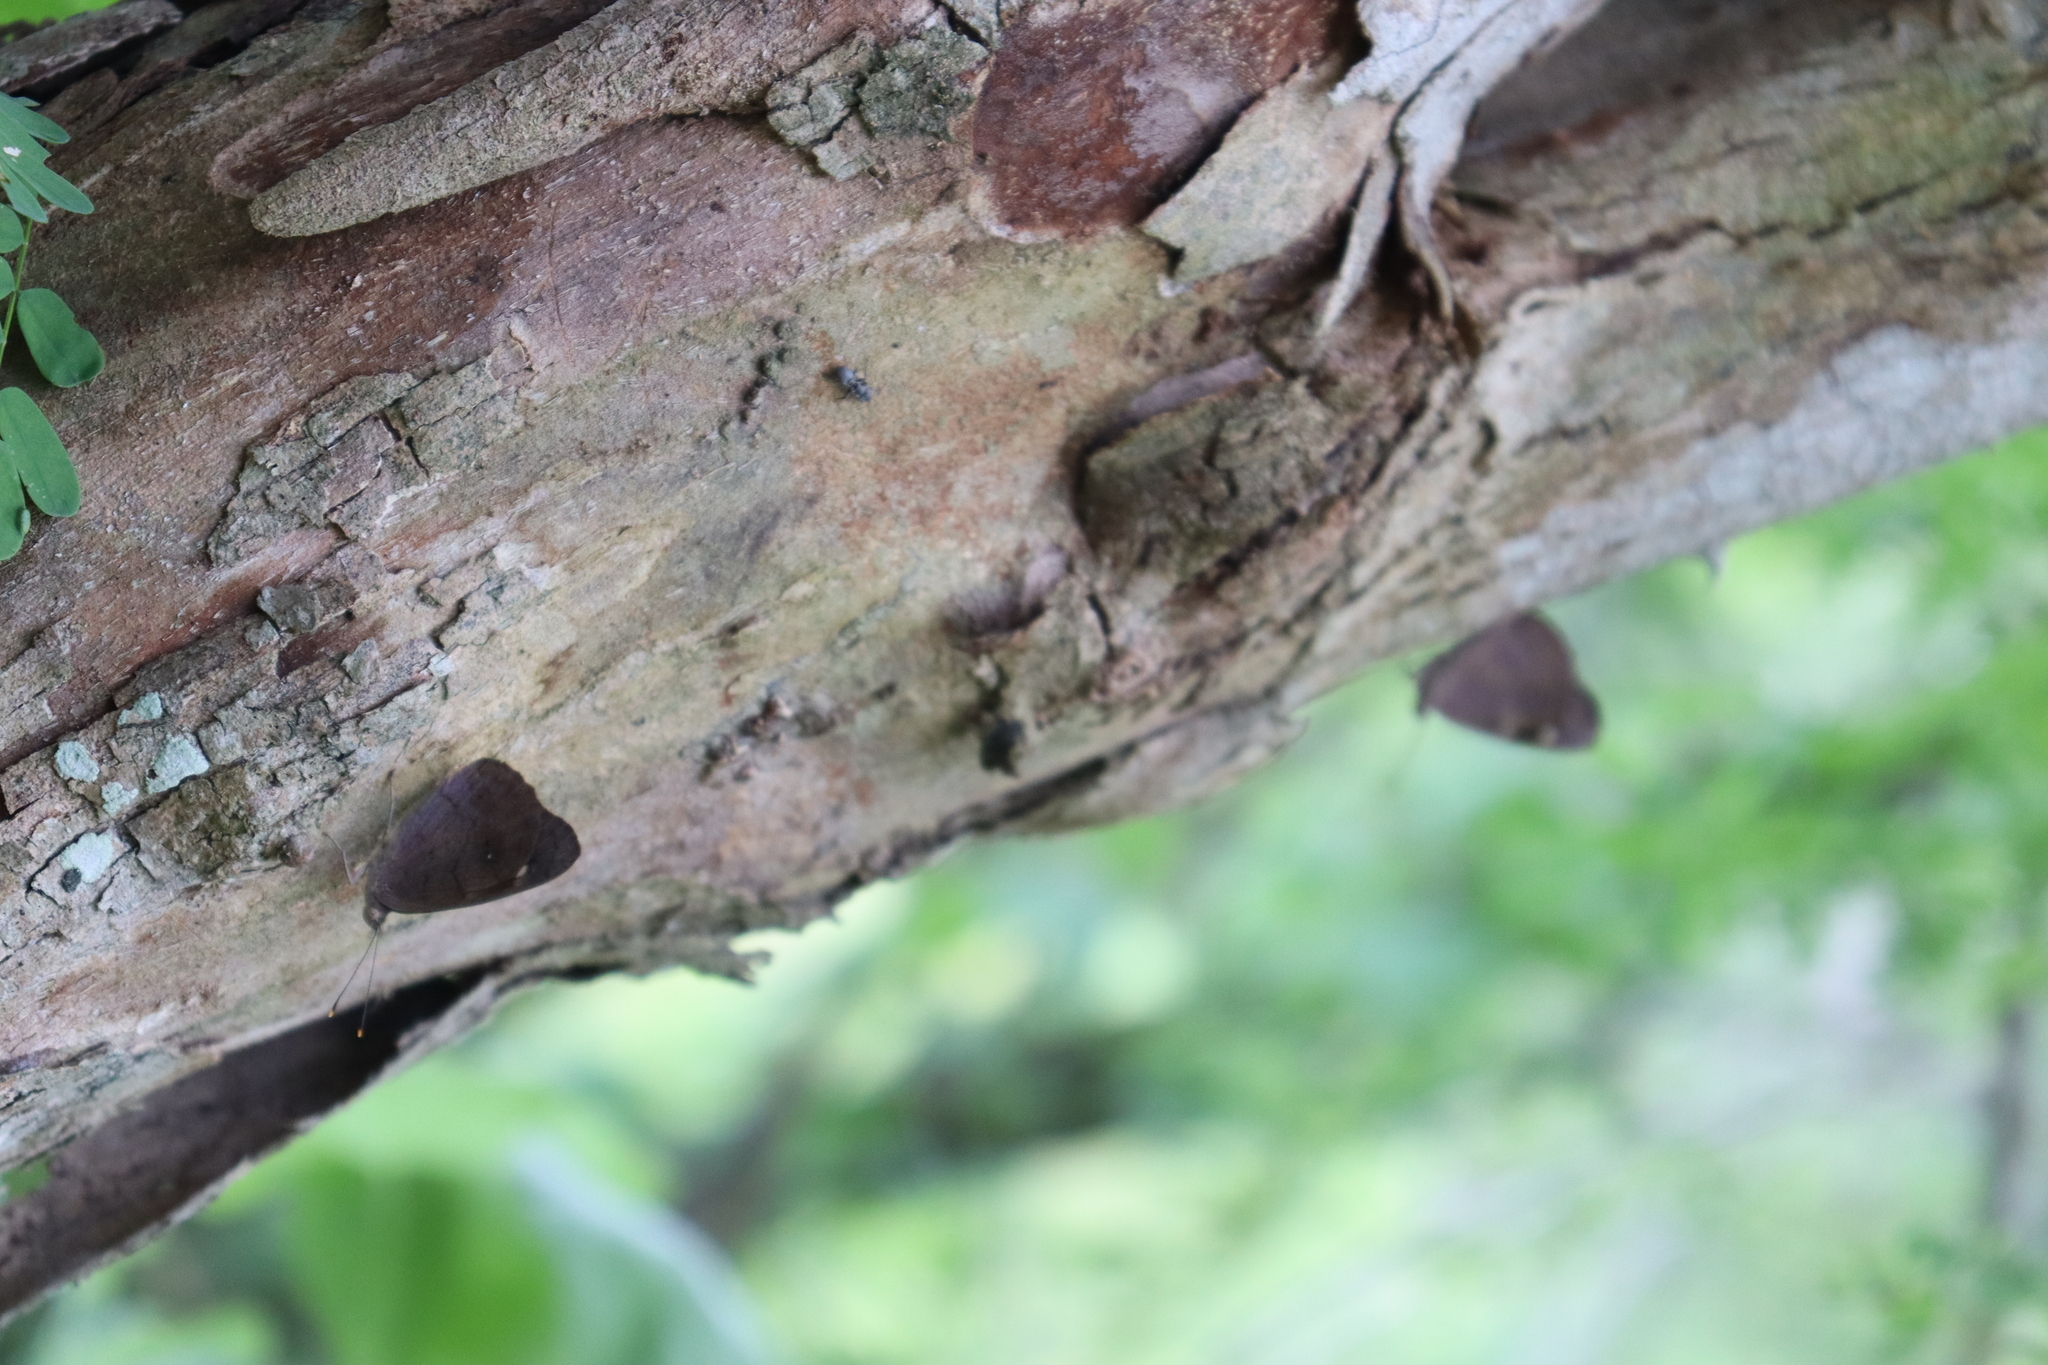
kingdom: Animalia
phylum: Arthropoda
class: Insecta
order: Lepidoptera
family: Nymphalidae
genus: Eunica
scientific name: Eunica monima
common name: Dingy purplewing
